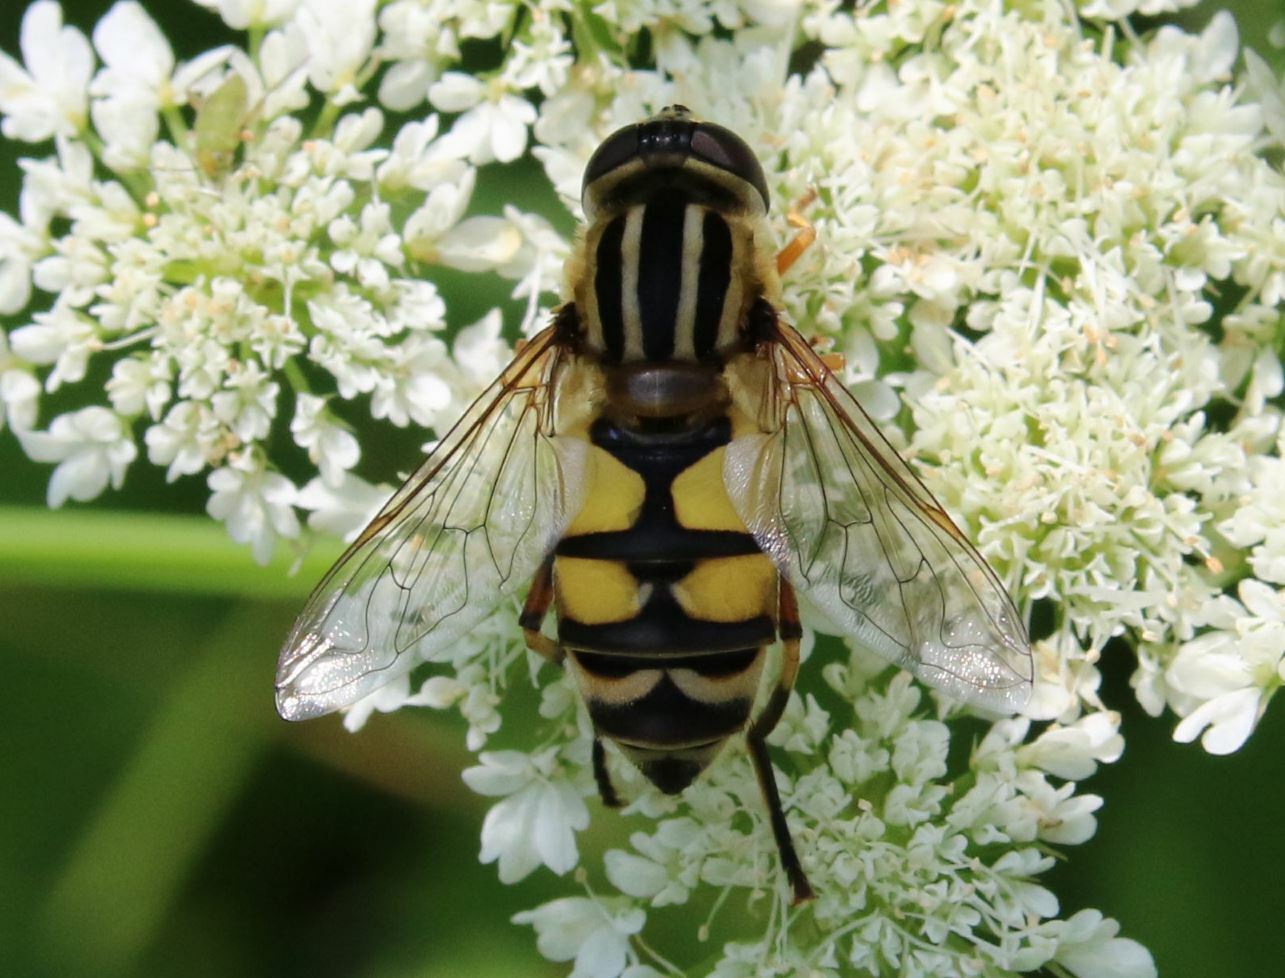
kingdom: Animalia
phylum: Arthropoda
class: Insecta
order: Diptera
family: Syrphidae
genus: Helophilus
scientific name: Helophilus trivittatus
